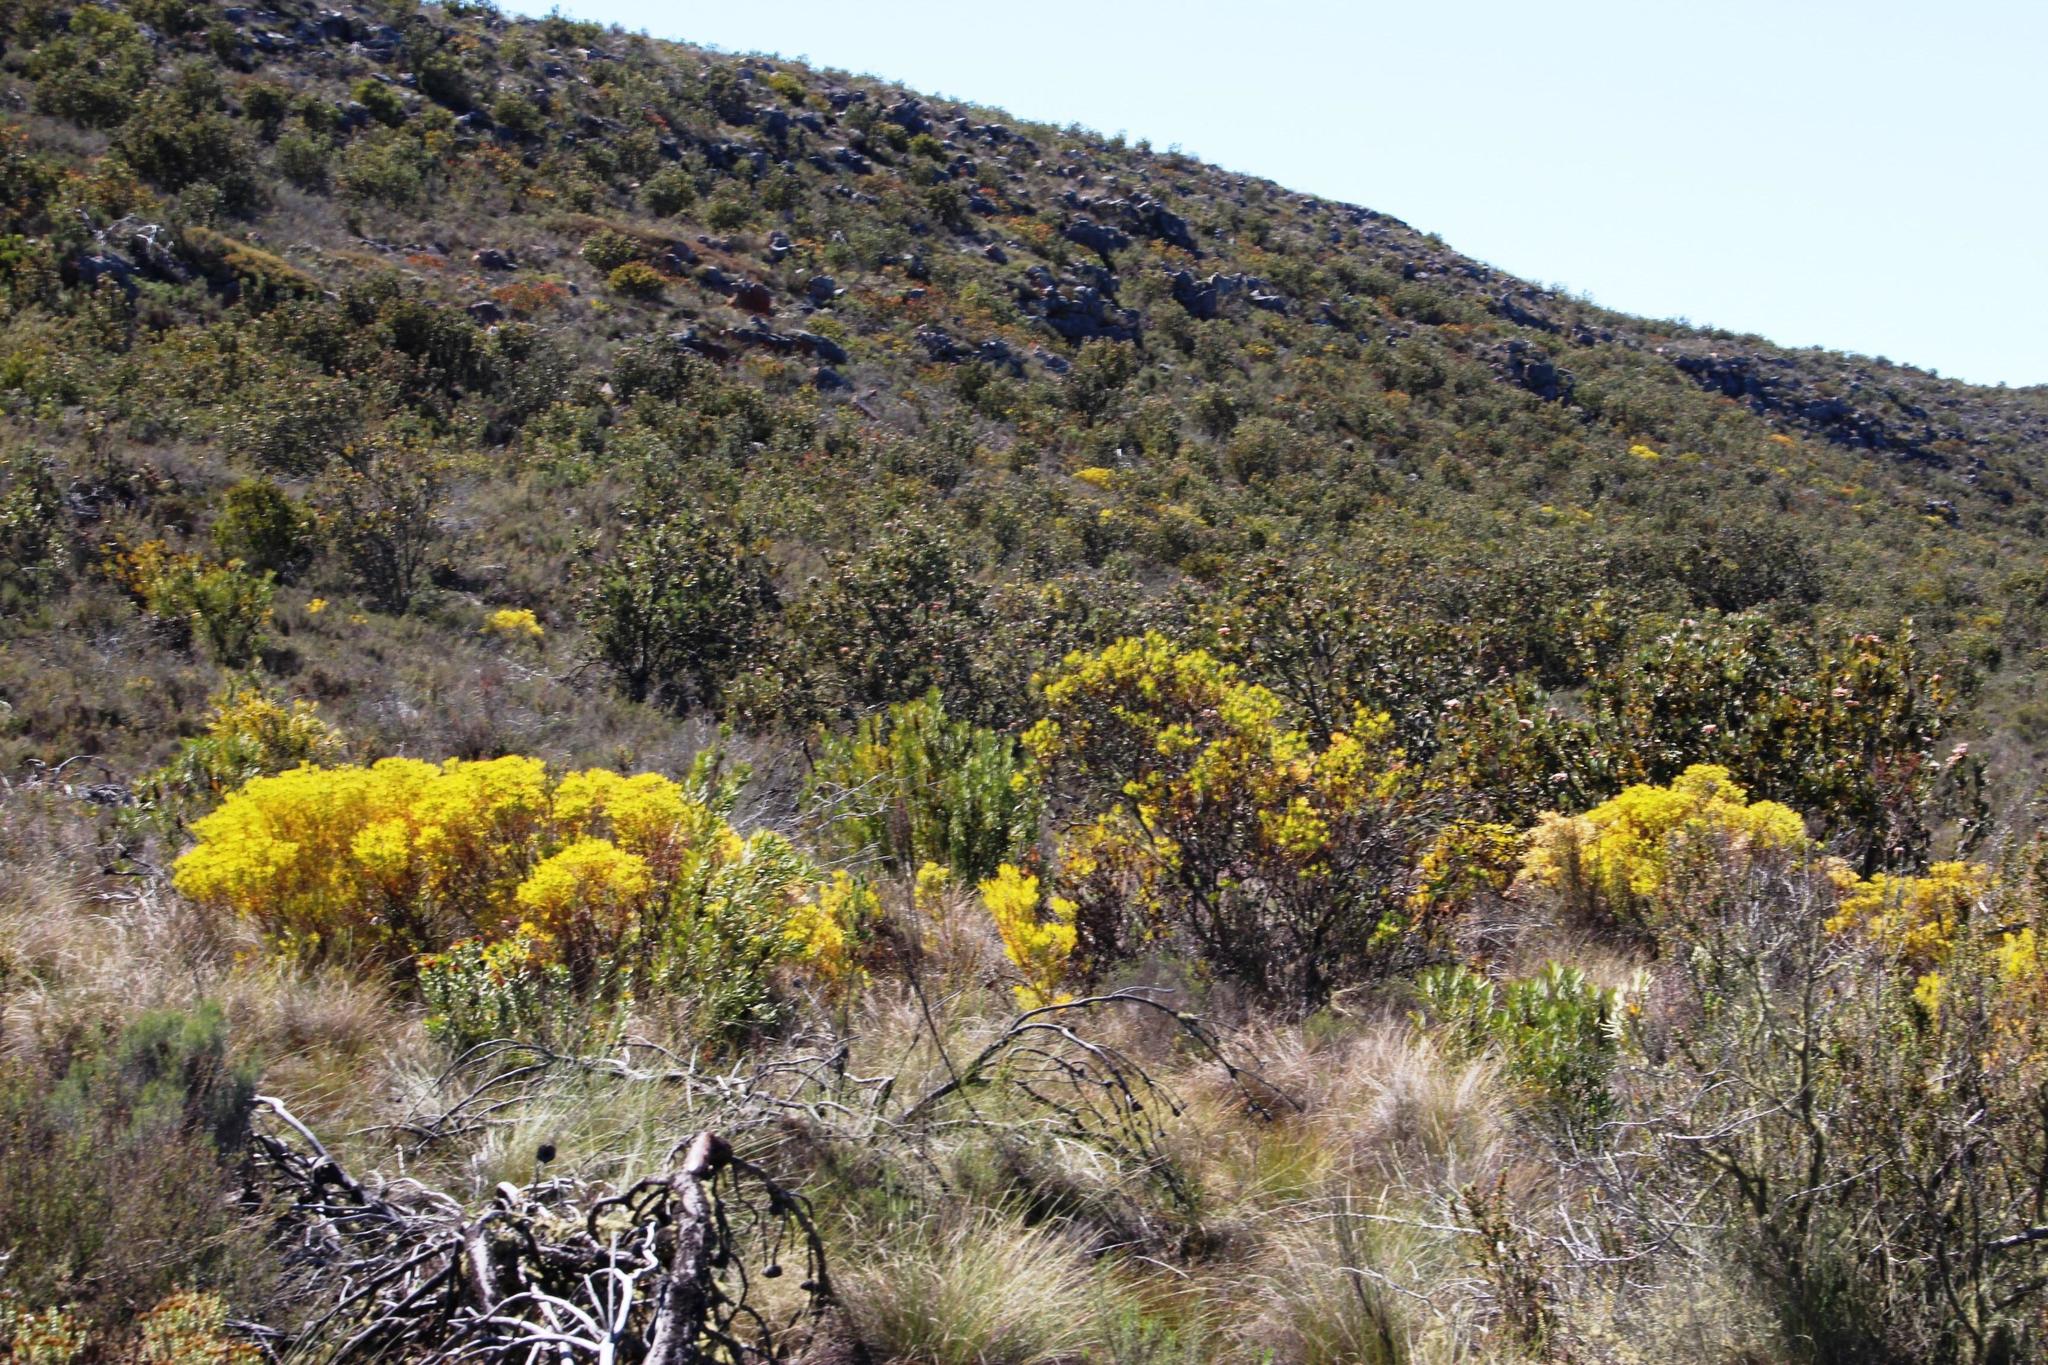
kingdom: Plantae
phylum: Tracheophyta
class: Magnoliopsida
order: Proteales
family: Proteaceae
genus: Leucadendron
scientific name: Leucadendron salignum
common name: Common sunshine conebush
